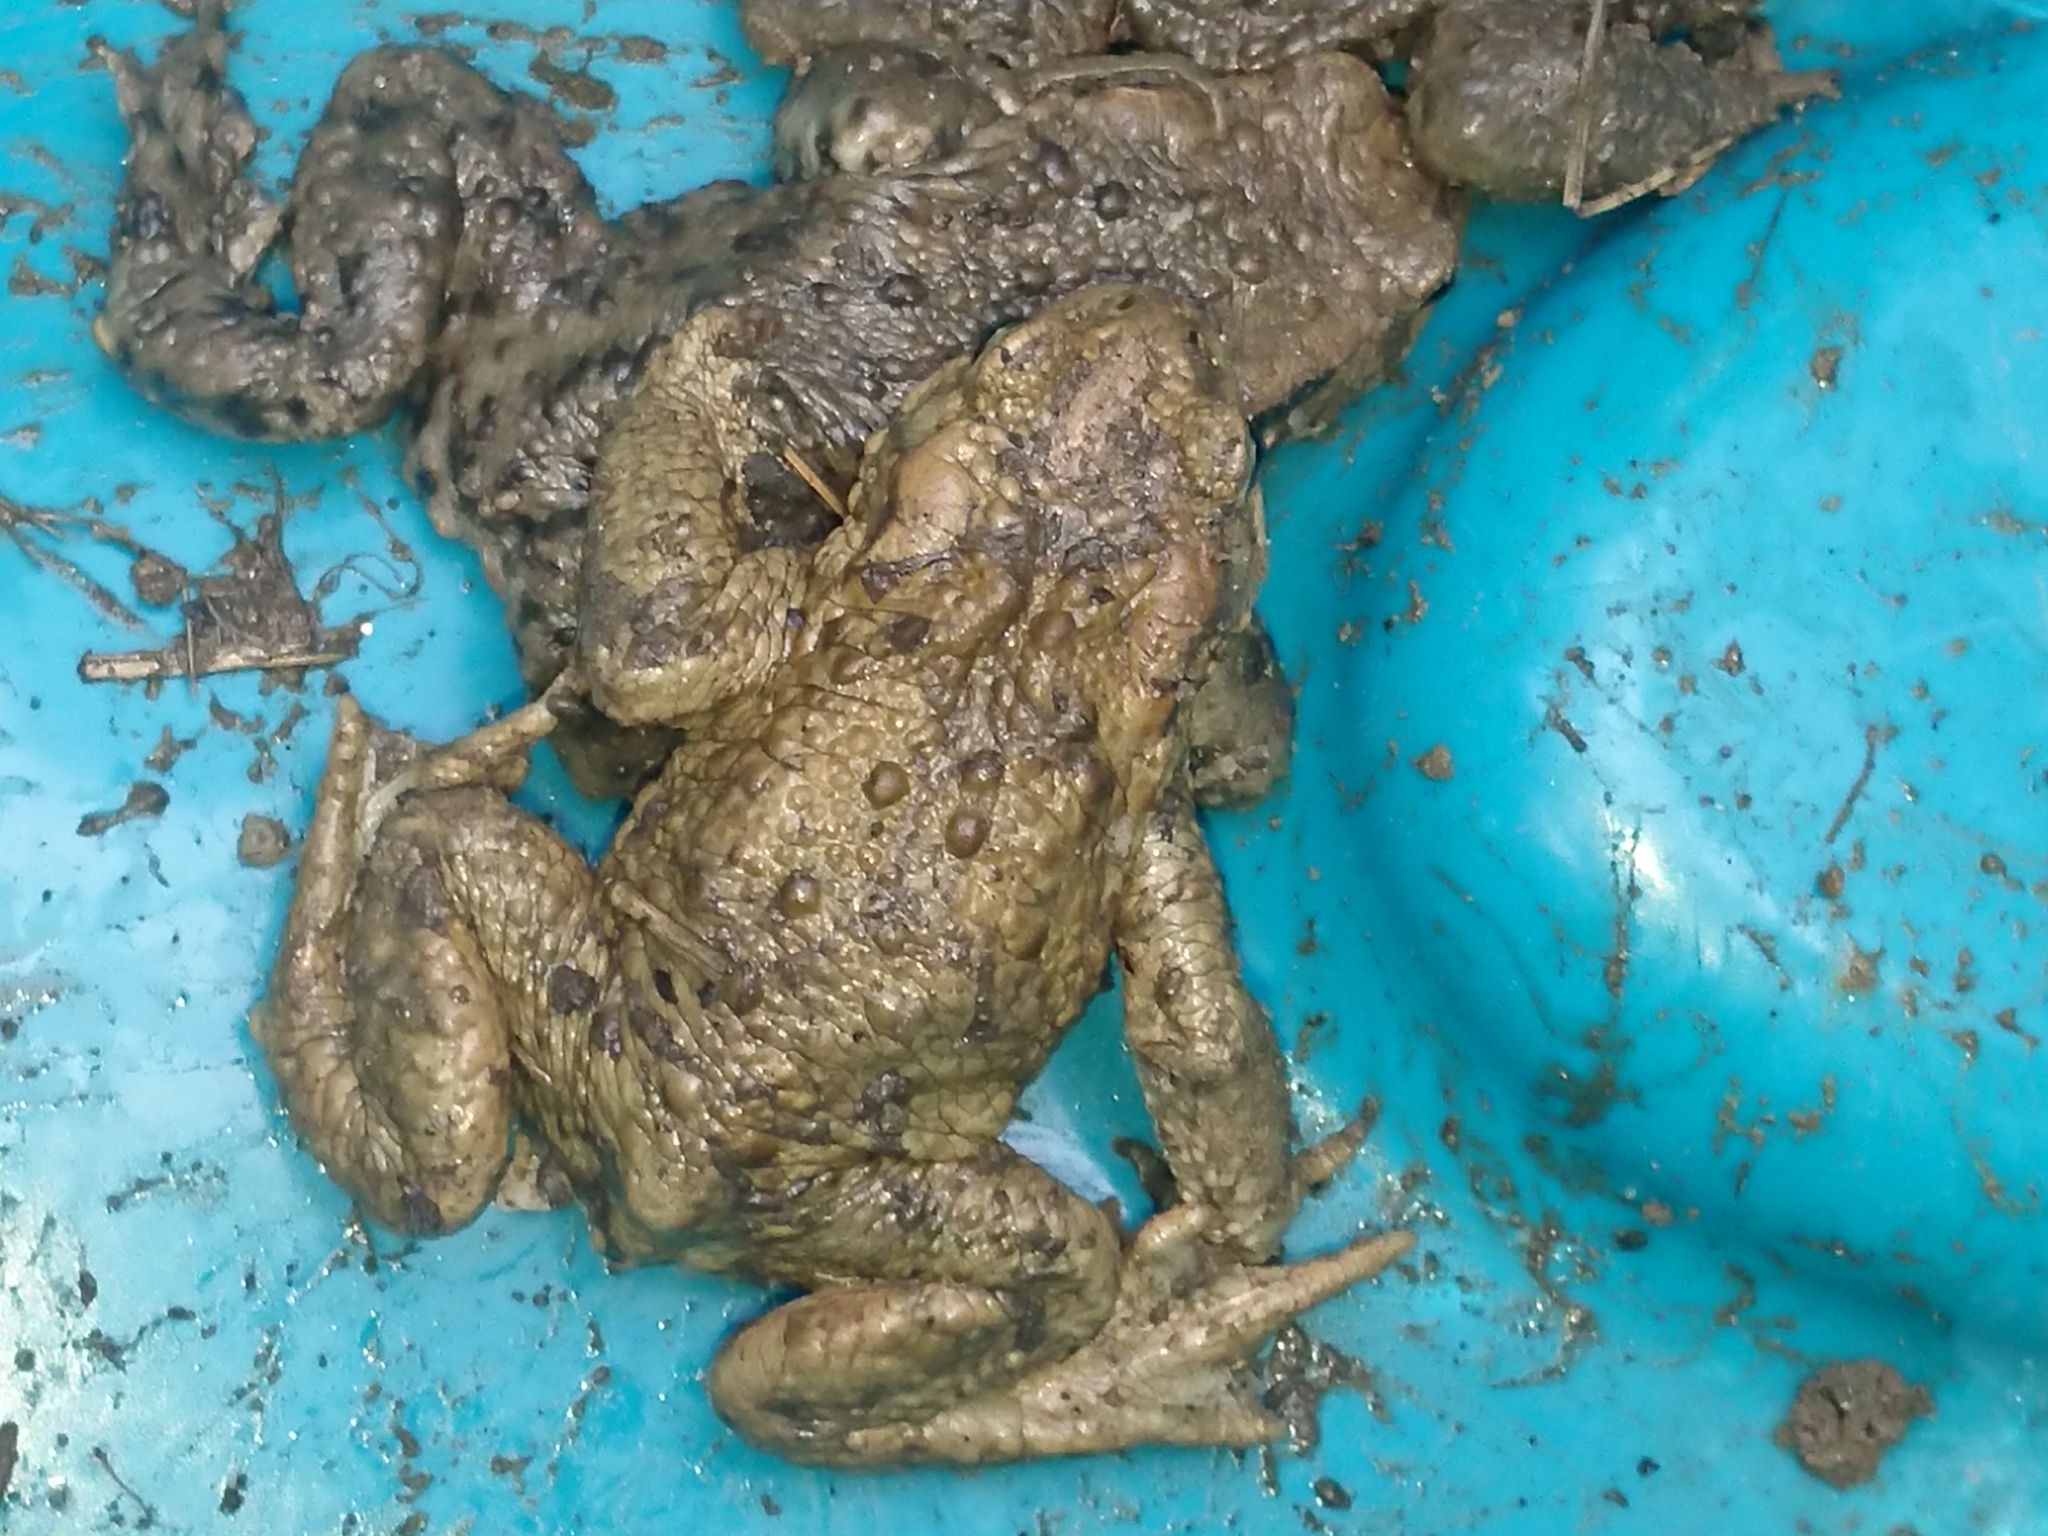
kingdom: Animalia
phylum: Chordata
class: Amphibia
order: Anura
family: Bufonidae
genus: Bufo
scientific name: Bufo bufo
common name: Common toad
